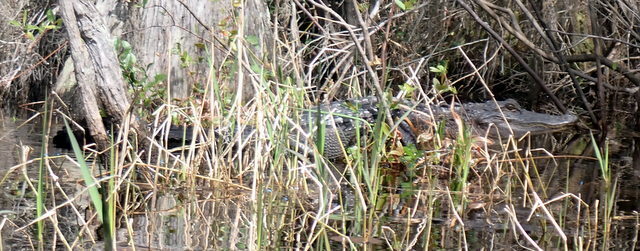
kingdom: Animalia
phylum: Chordata
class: Crocodylia
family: Alligatoridae
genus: Alligator
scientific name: Alligator mississippiensis
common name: American alligator
